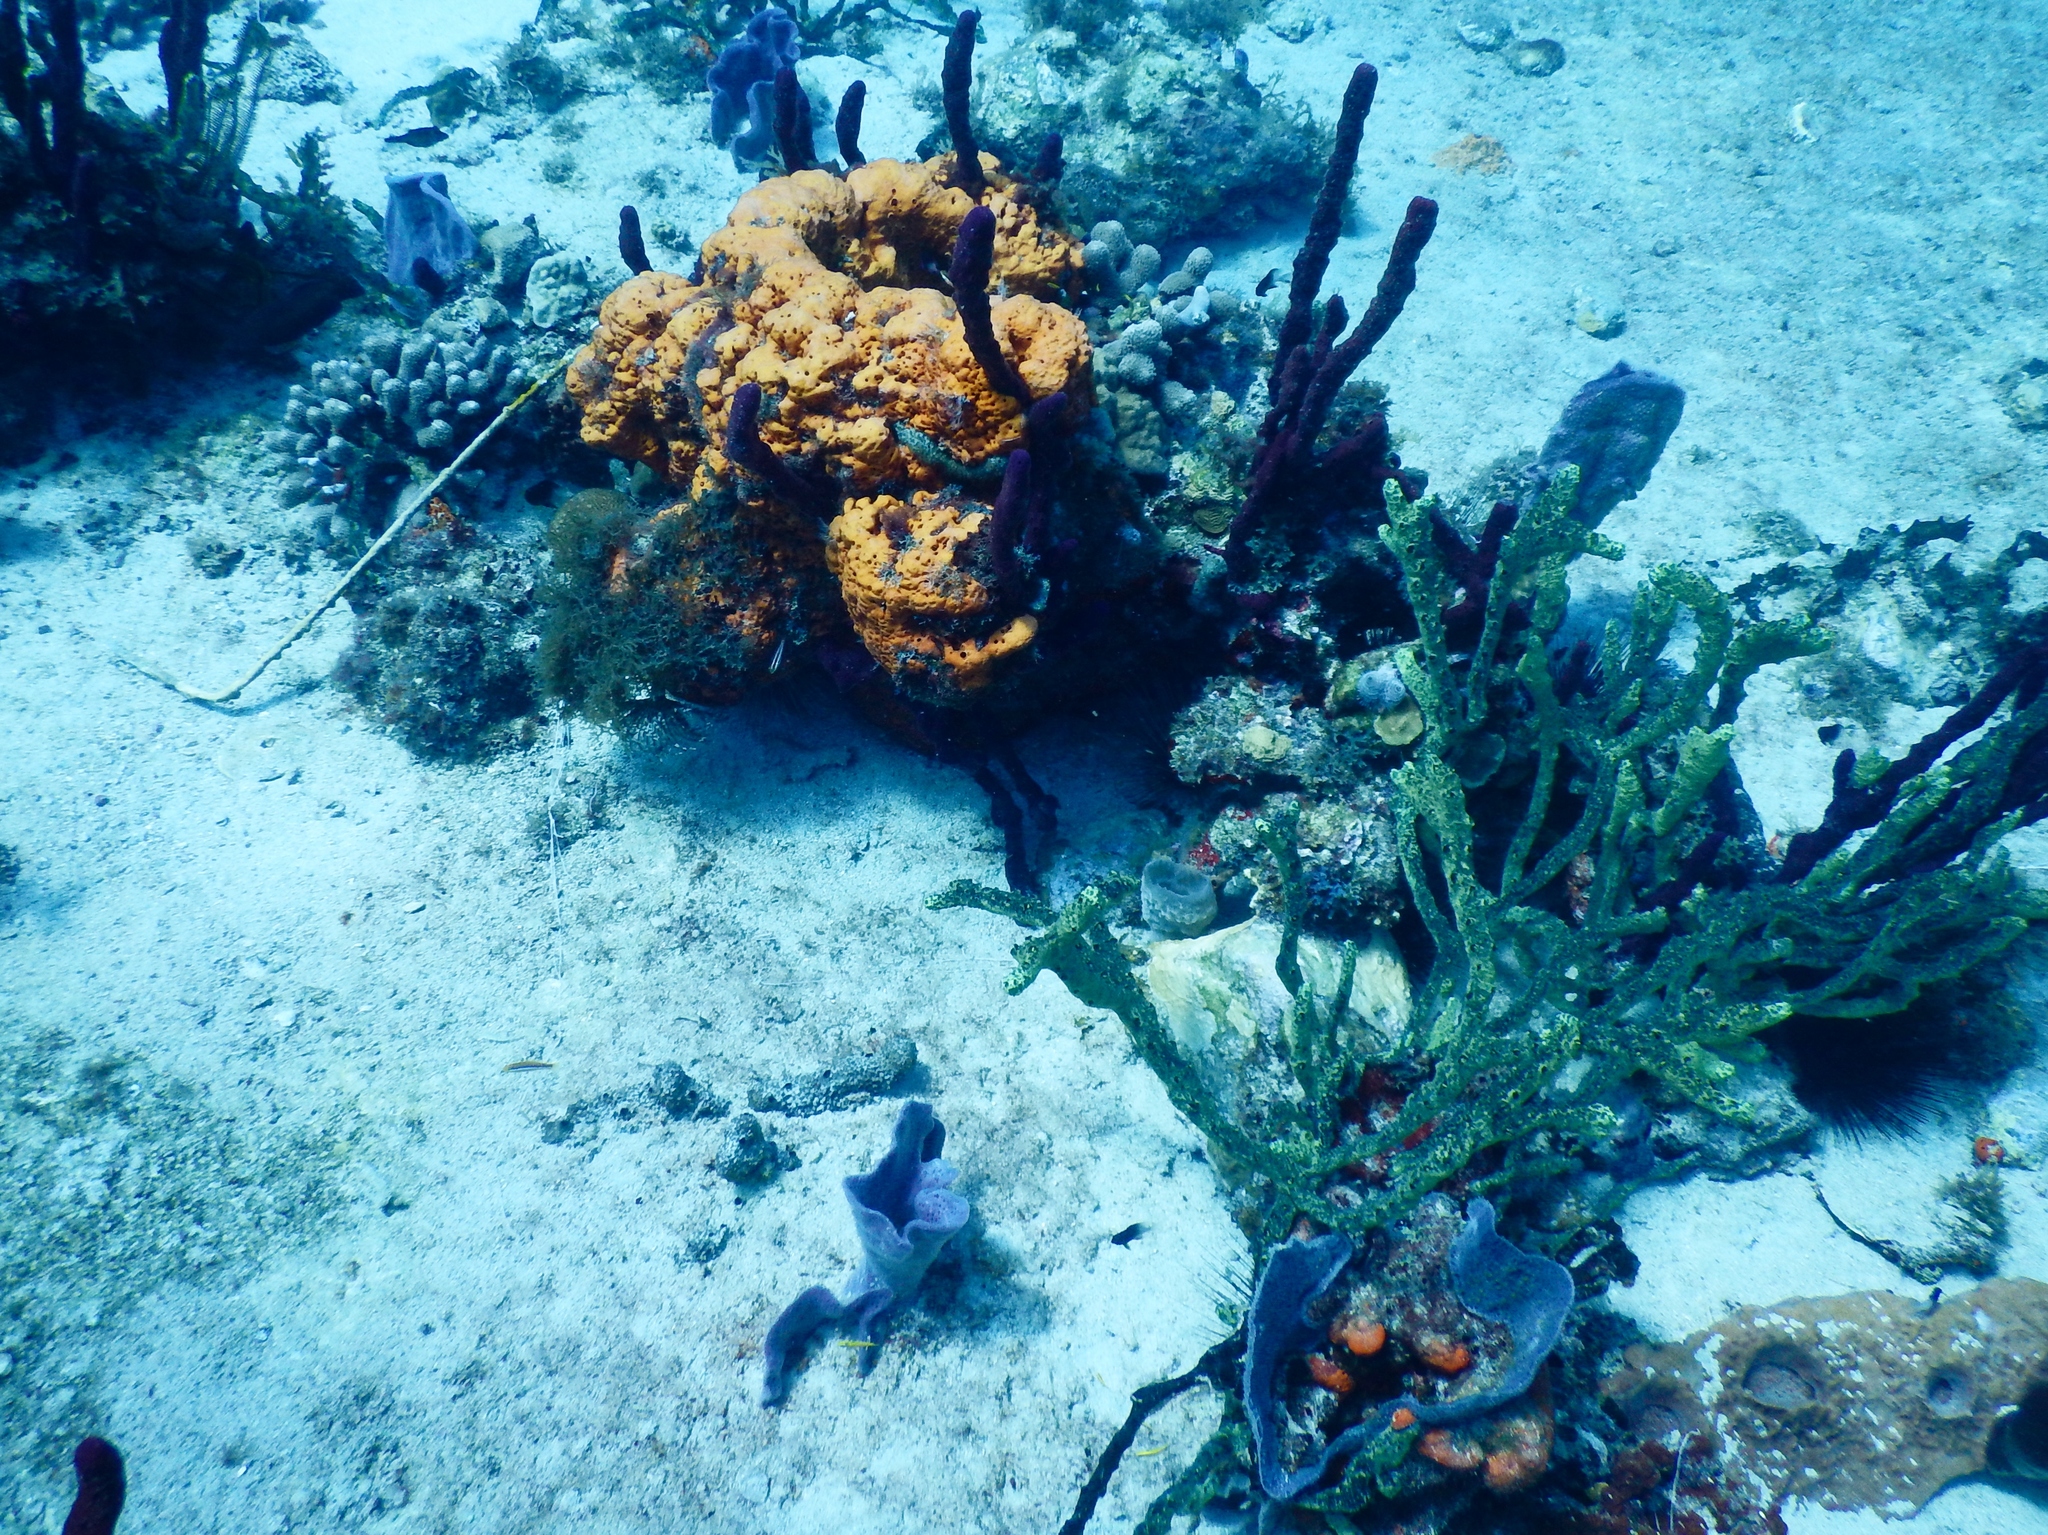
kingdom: Animalia
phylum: Porifera
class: Demospongiae
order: Agelasida
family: Agelasidae
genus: Agelas
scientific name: Agelas citrina
